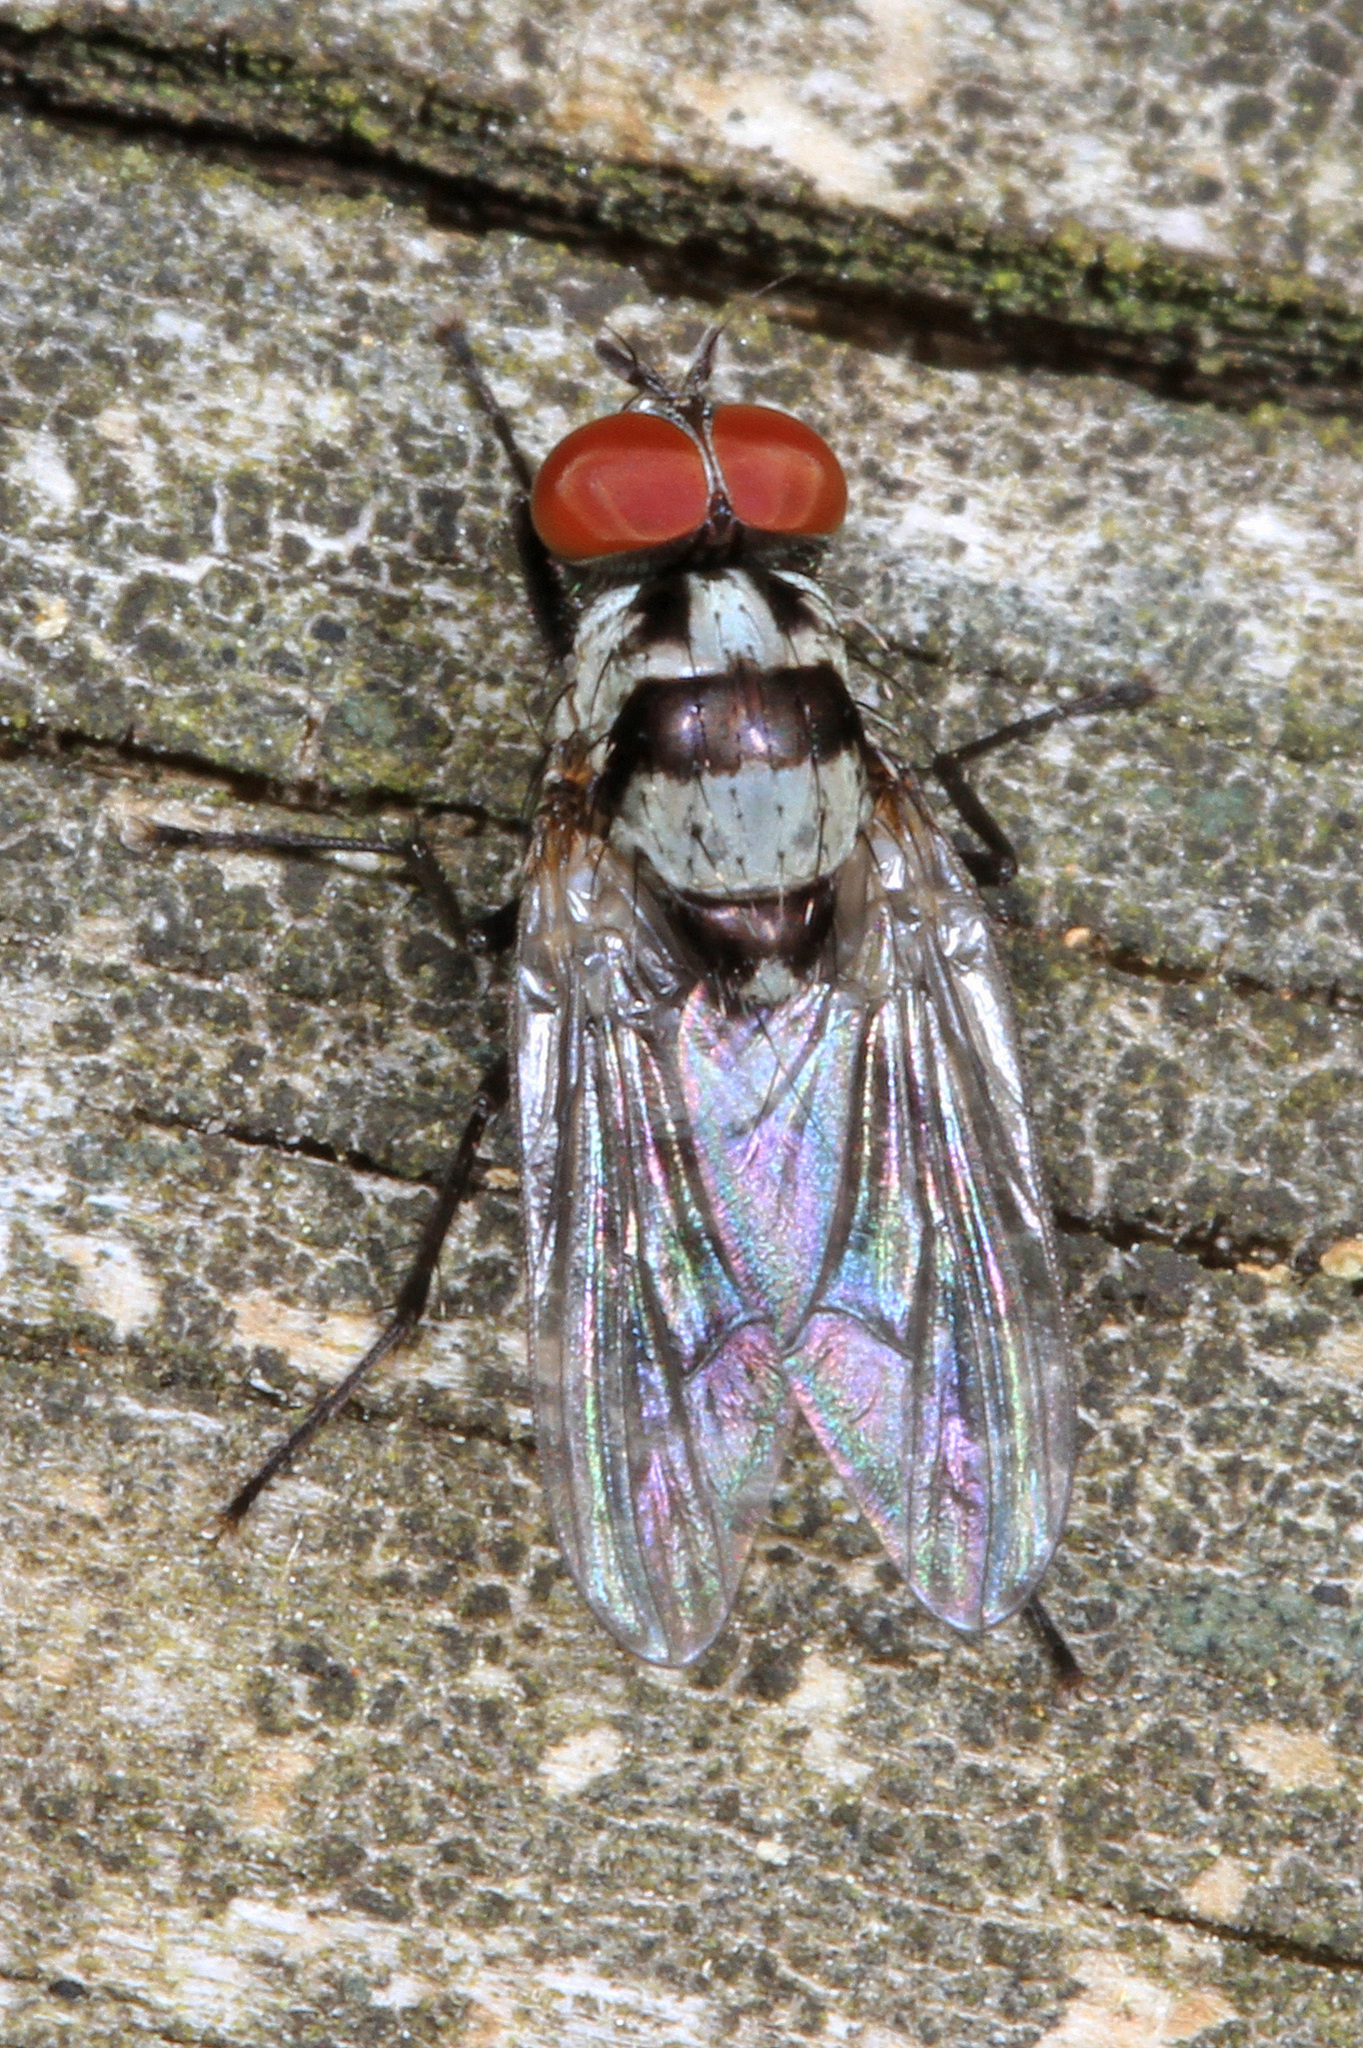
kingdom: Animalia
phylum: Arthropoda
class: Insecta
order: Diptera
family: Anthomyiidae
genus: Anthomyia
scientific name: Anthomyia oculifera
